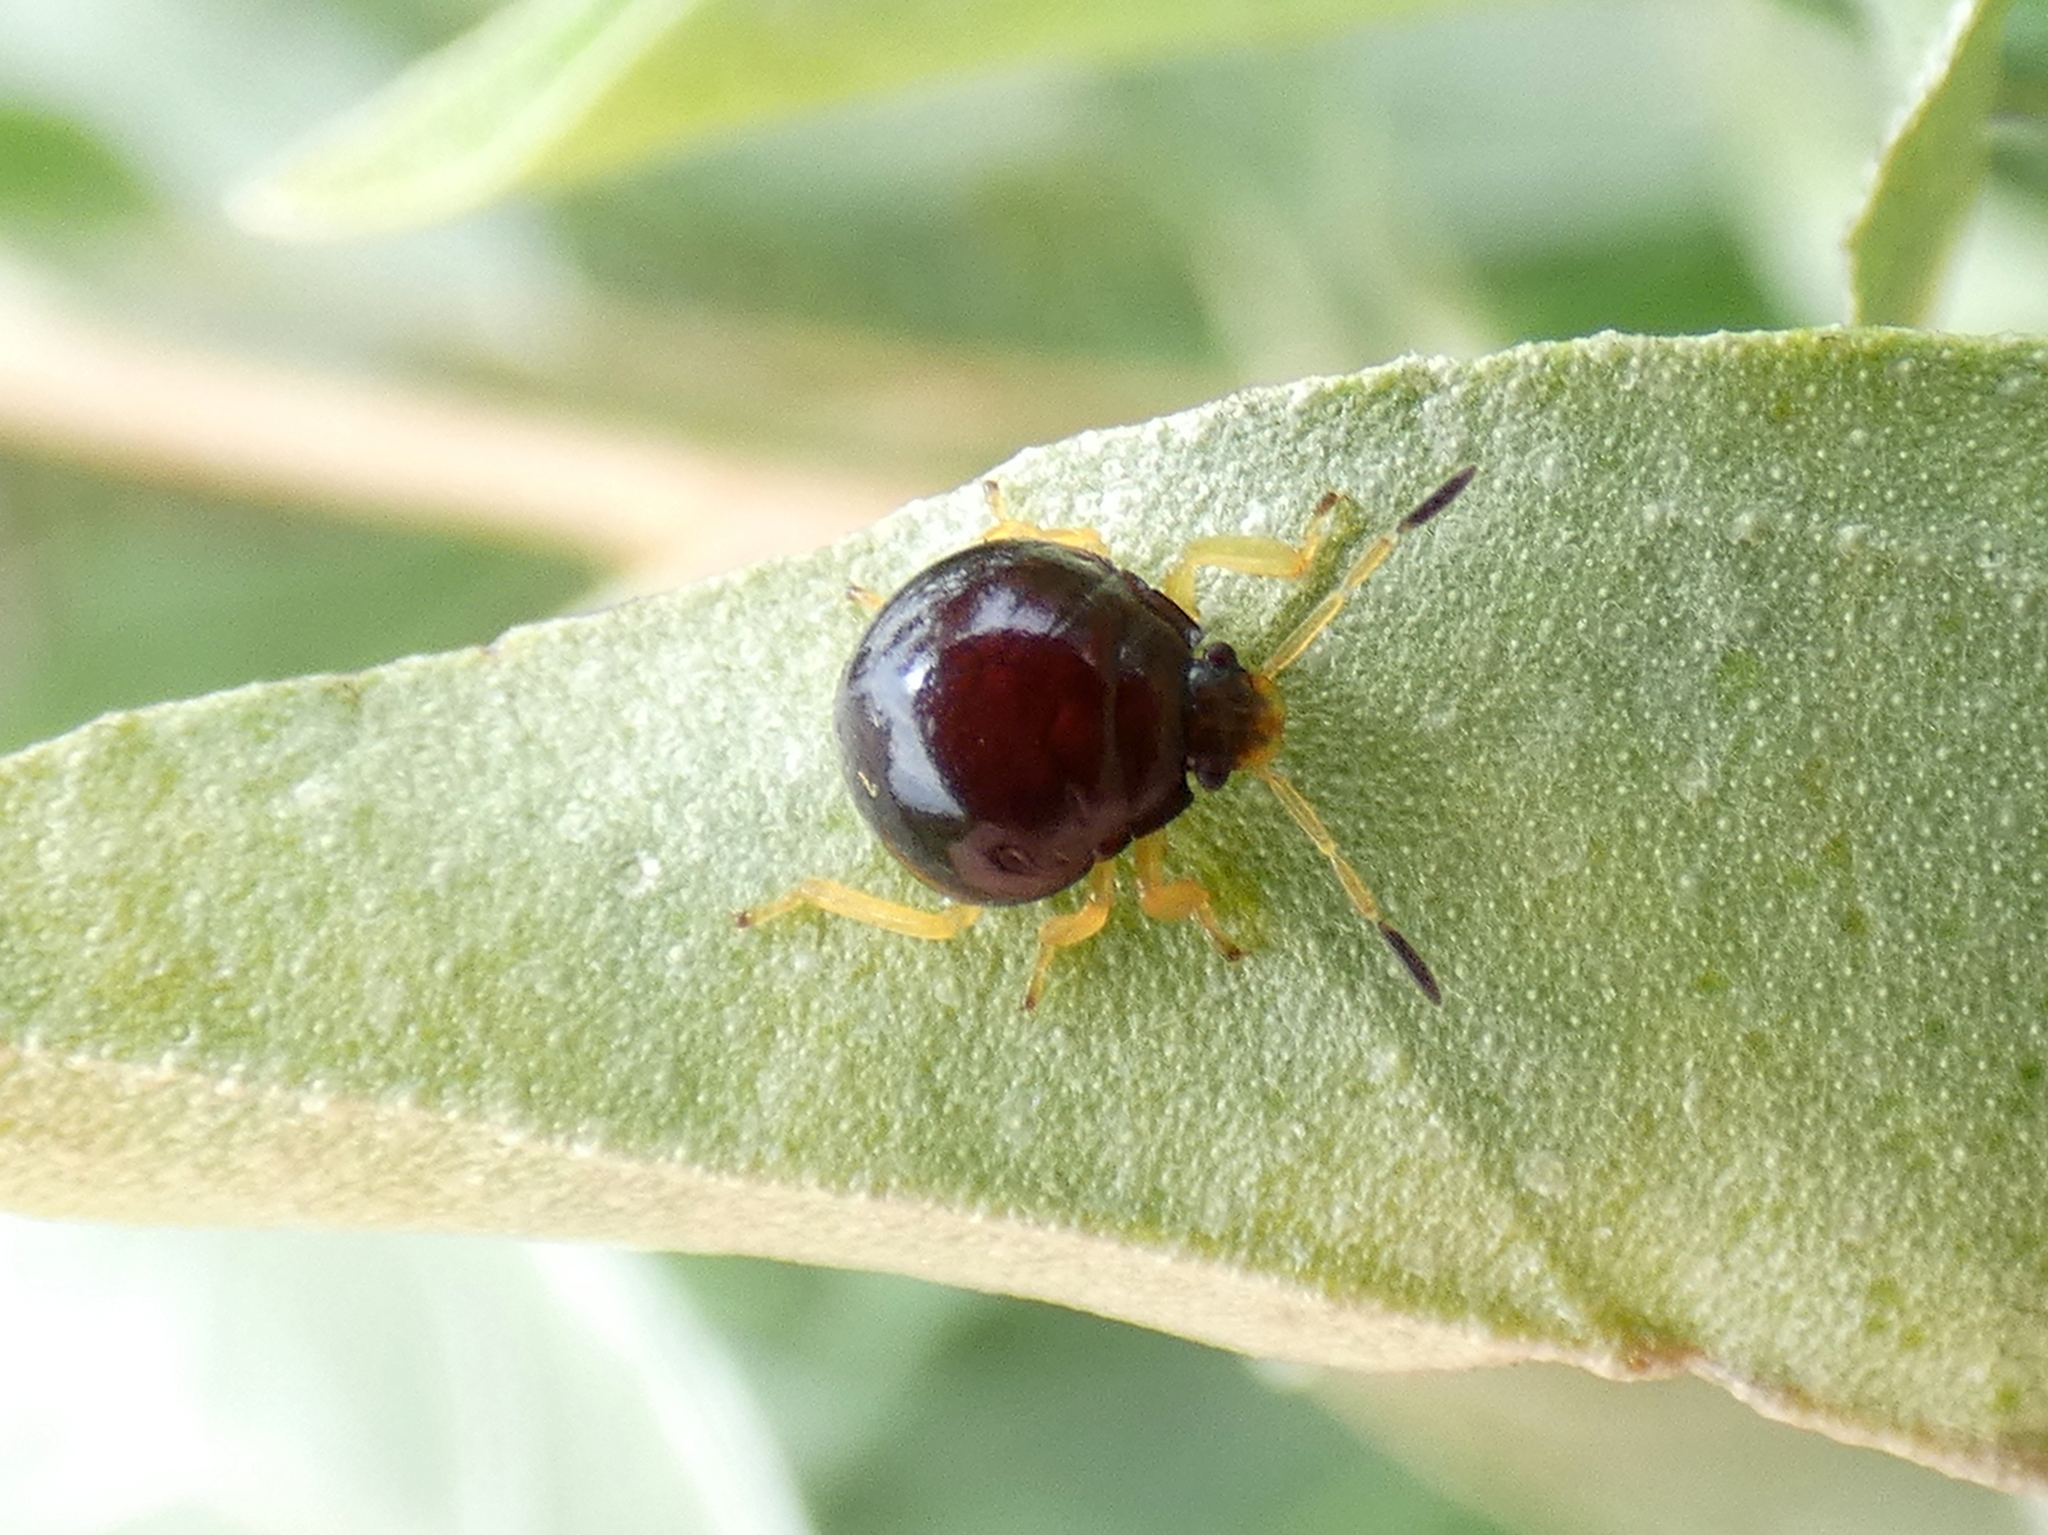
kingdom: Animalia
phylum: Arthropoda
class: Insecta
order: Hemiptera
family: Pentatomidae
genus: Stiretrus
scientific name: Stiretrus anchorago
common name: Anchor stink bug
